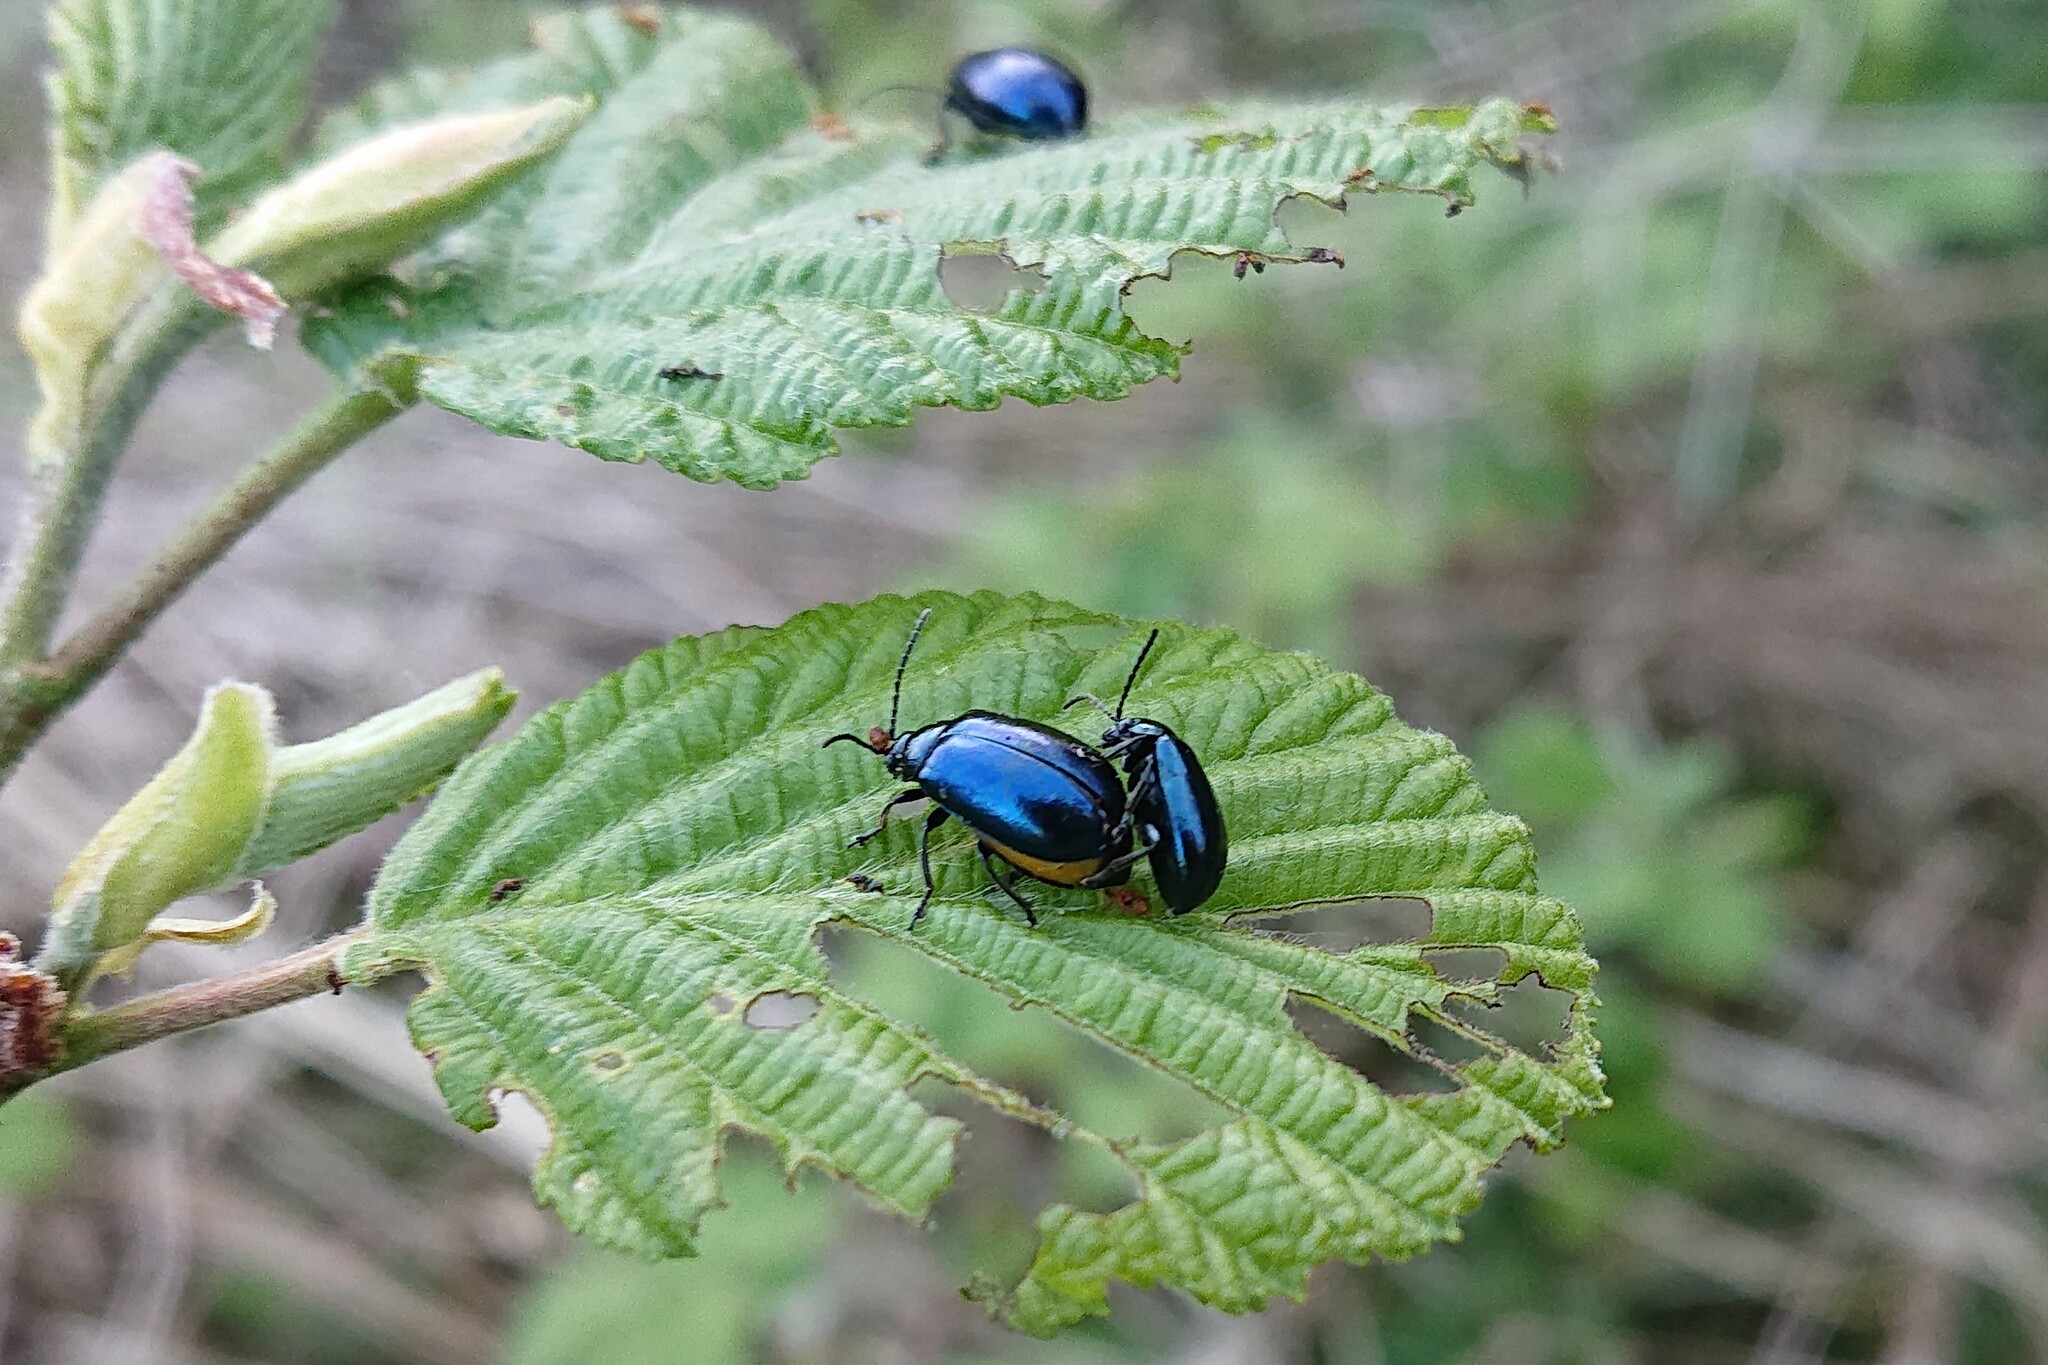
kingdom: Animalia
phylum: Arthropoda
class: Insecta
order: Coleoptera
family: Chrysomelidae
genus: Agelastica
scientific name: Agelastica alni
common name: Alder leaf beetle
